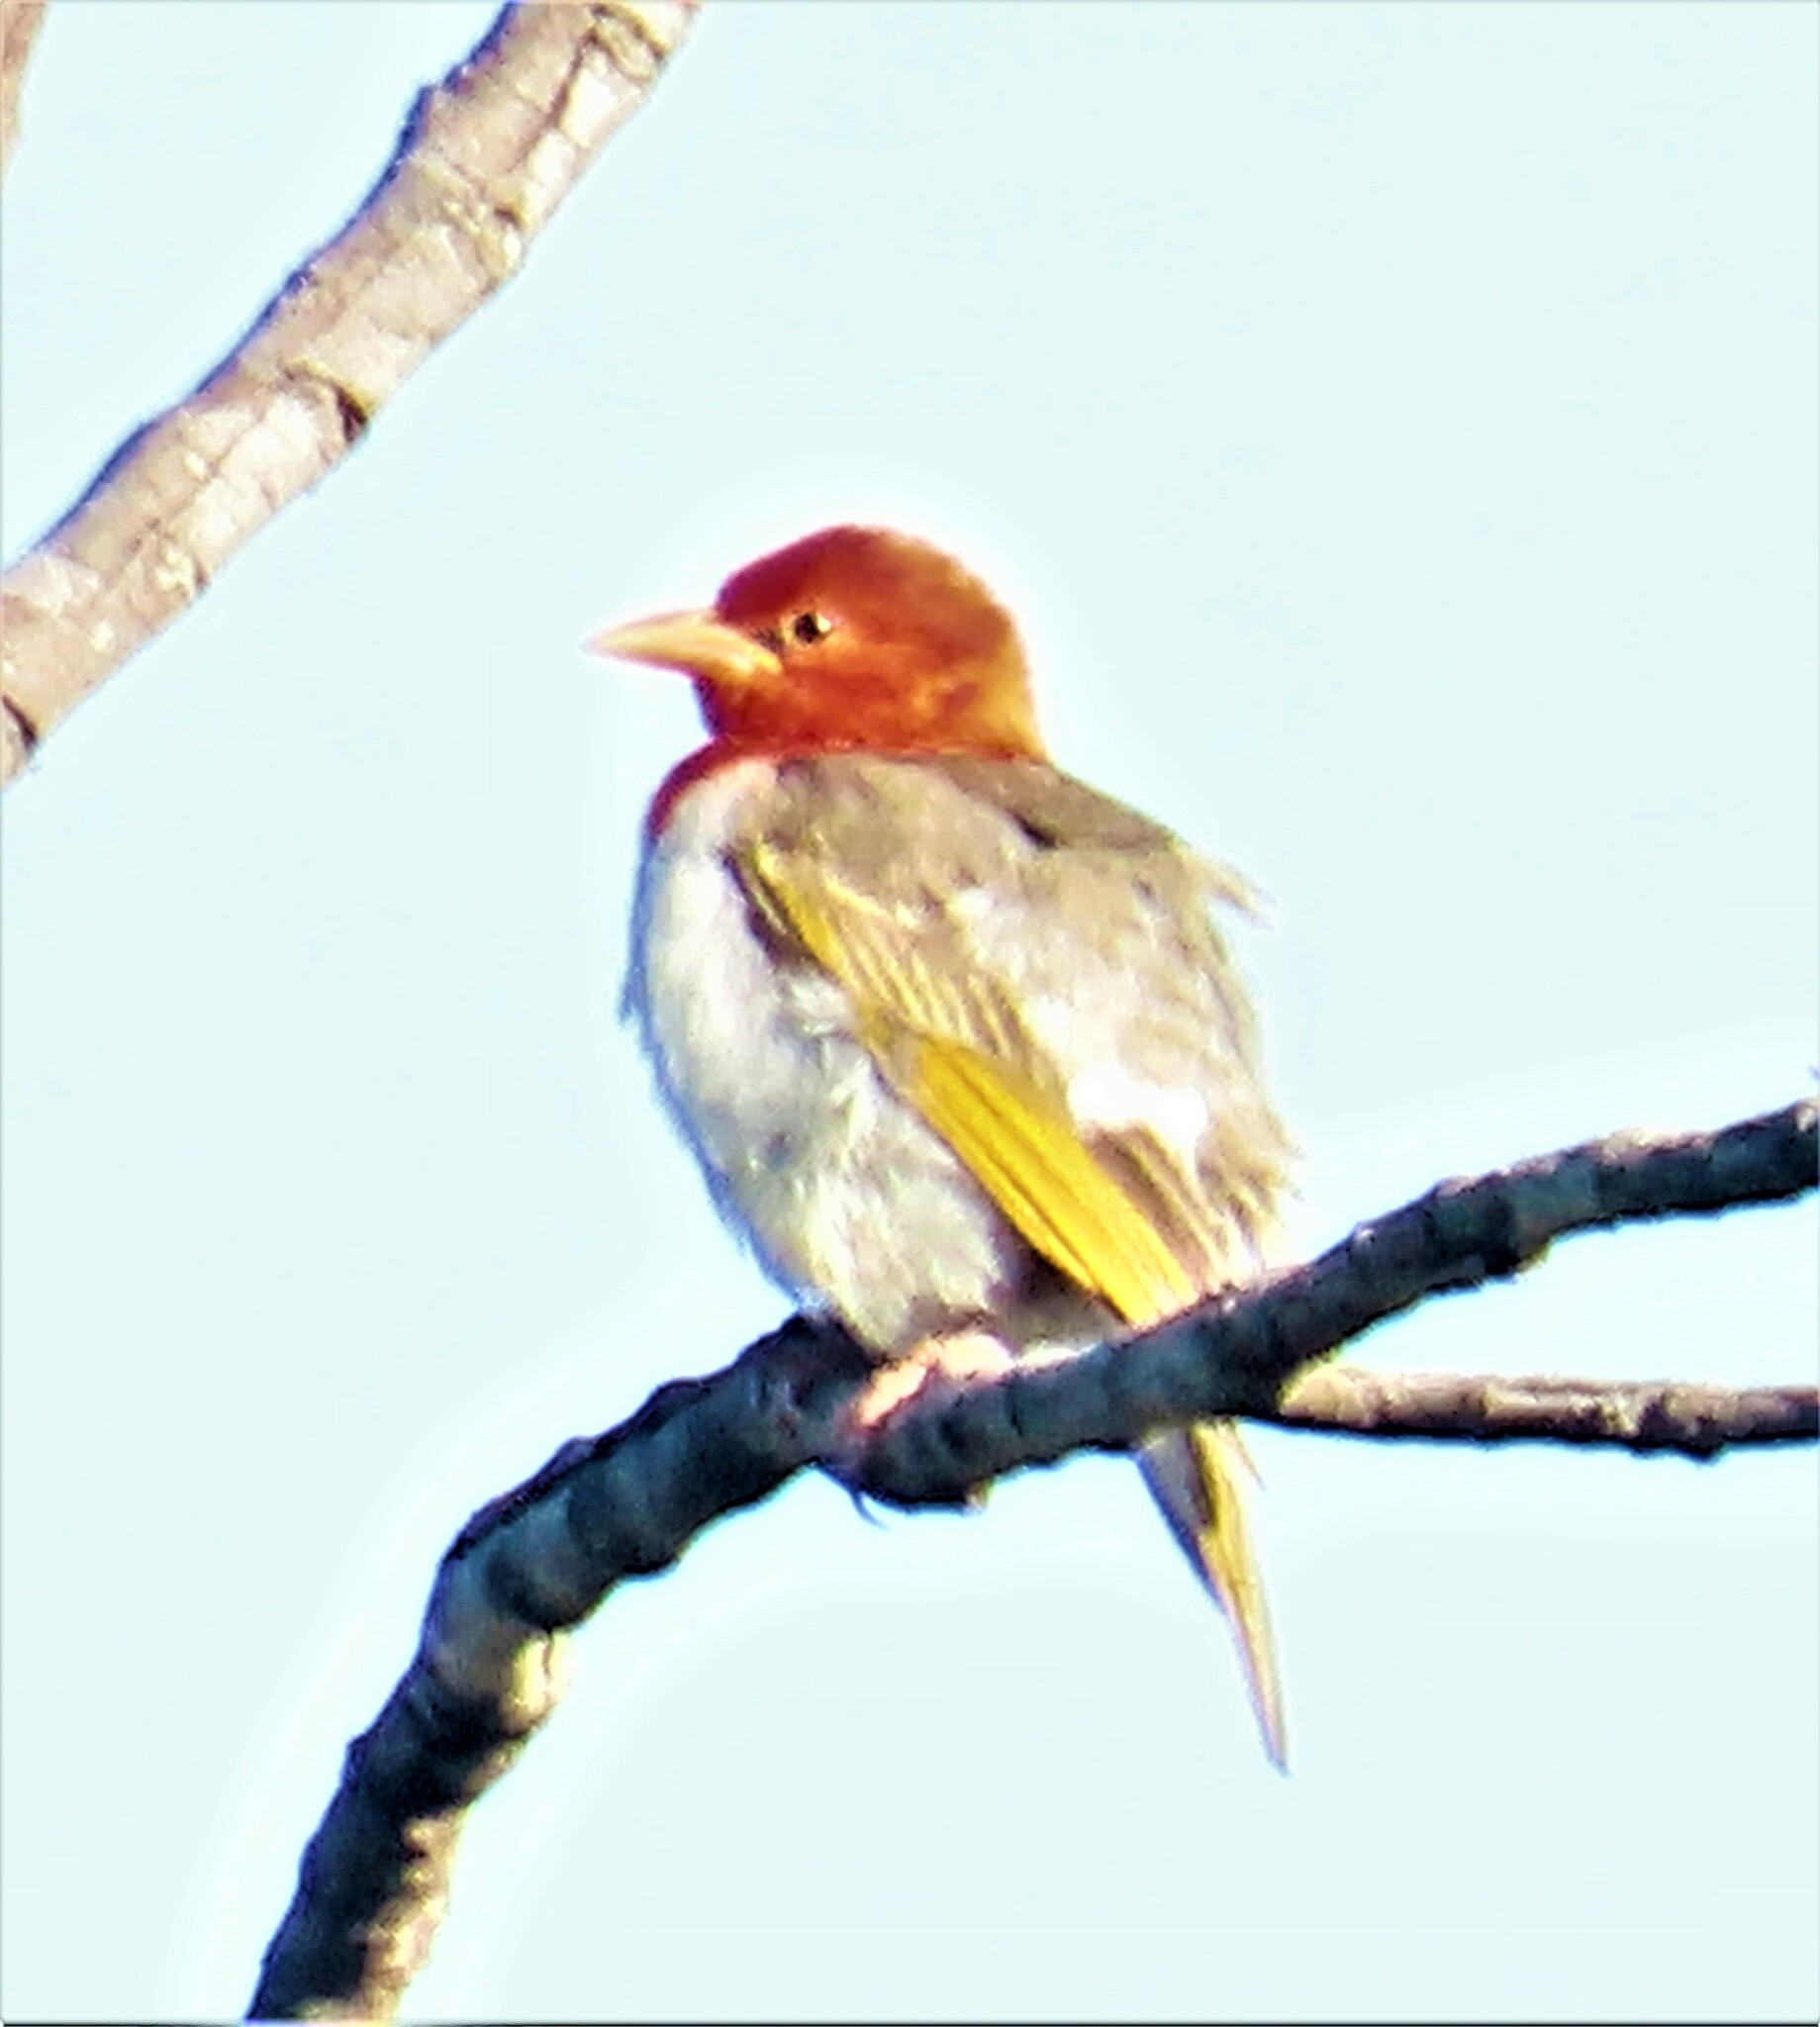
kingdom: Animalia
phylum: Chordata
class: Aves
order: Passeriformes
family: Ploceidae
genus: Anaplectes
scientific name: Anaplectes rubriceps
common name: Red-headed weaver
